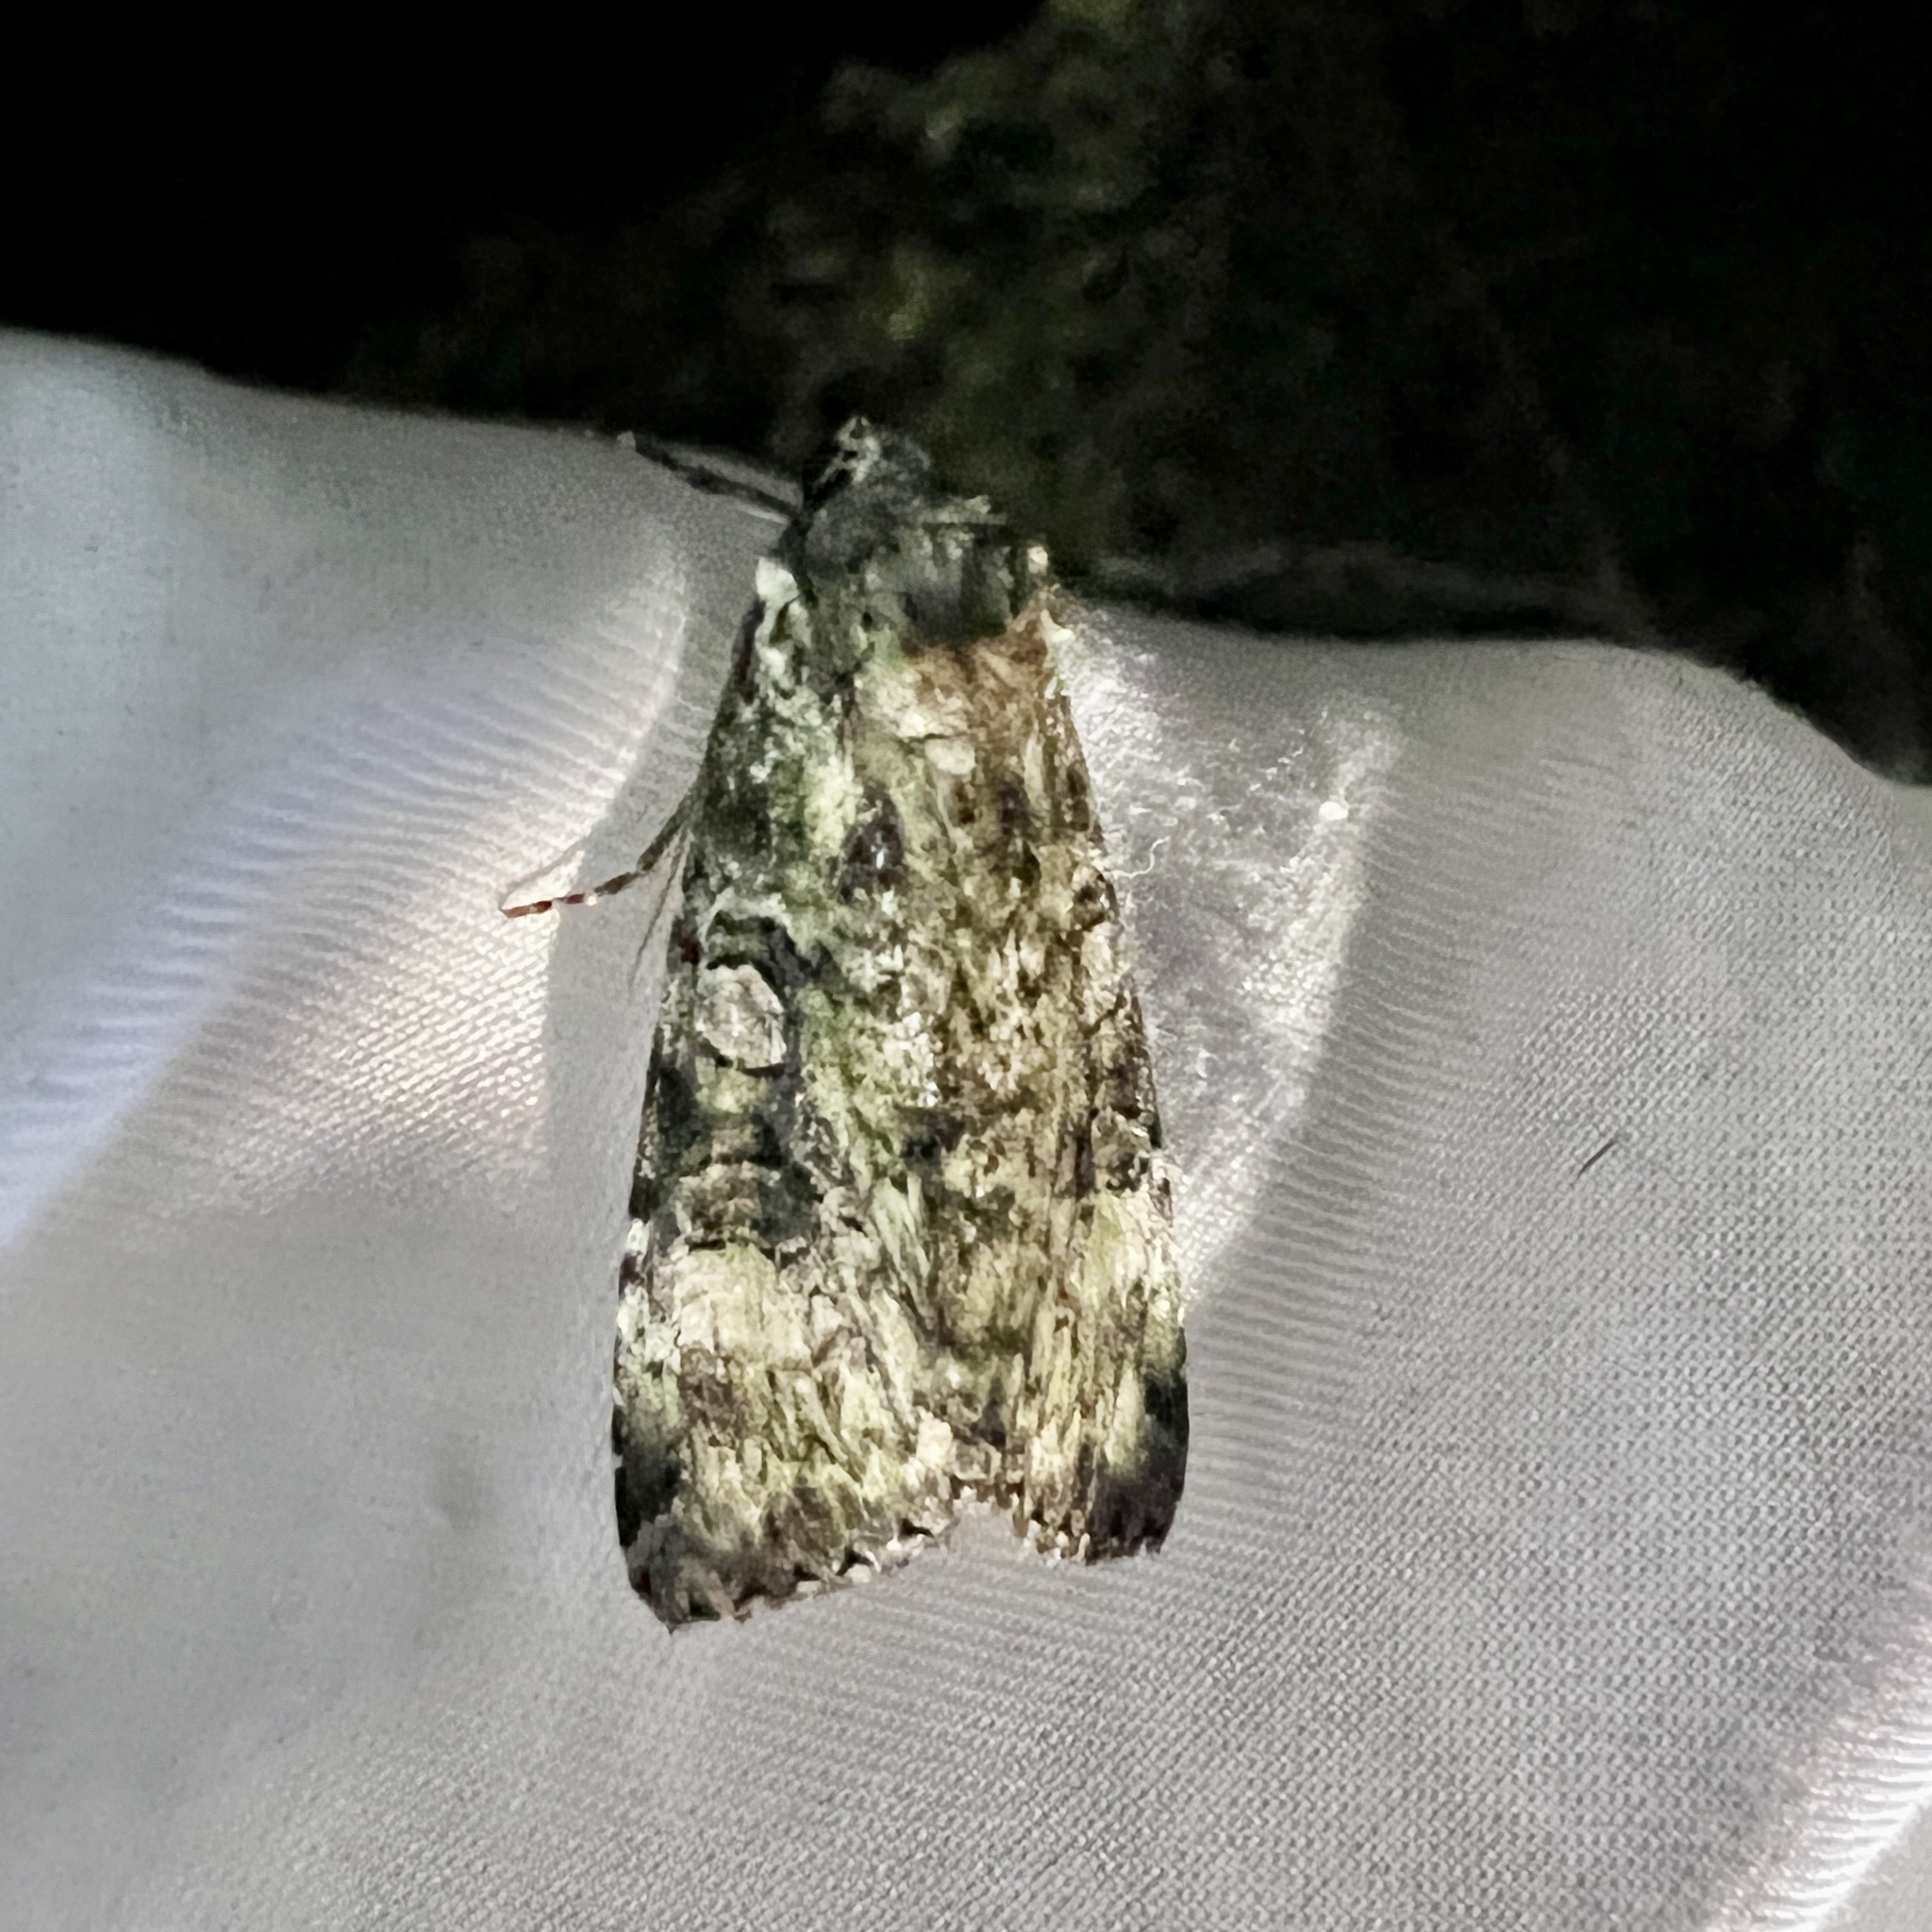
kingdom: Animalia
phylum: Arthropoda
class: Insecta
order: Lepidoptera
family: Noctuidae
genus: Anaplectoides
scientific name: Anaplectoides prasina
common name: Green arches
